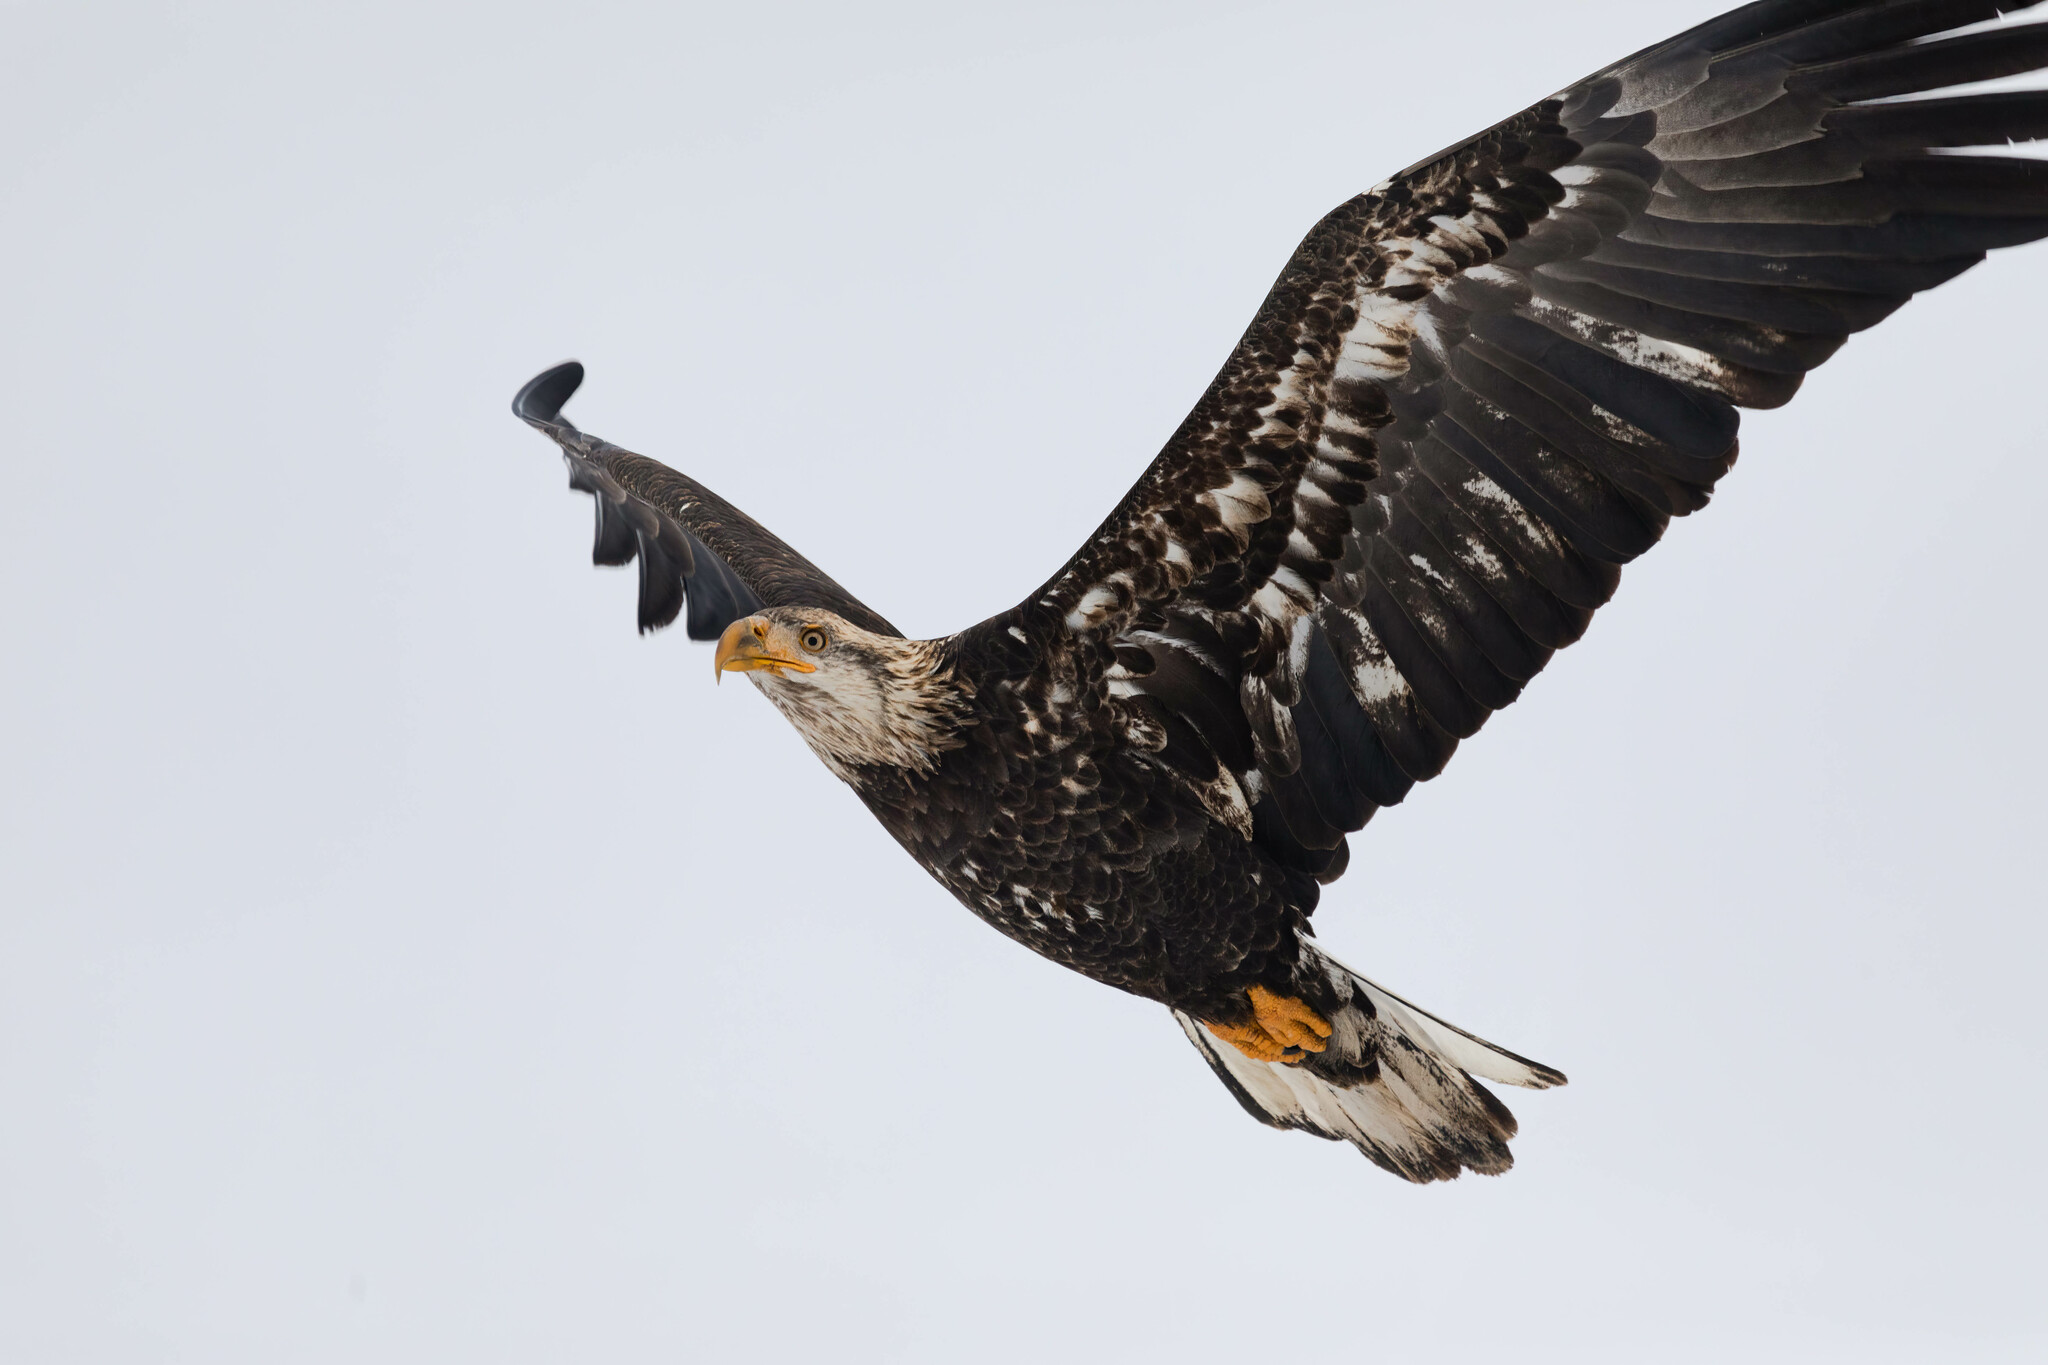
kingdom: Animalia
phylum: Chordata
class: Aves
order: Accipitriformes
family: Accipitridae
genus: Haliaeetus
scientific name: Haliaeetus leucocephalus
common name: Bald eagle
